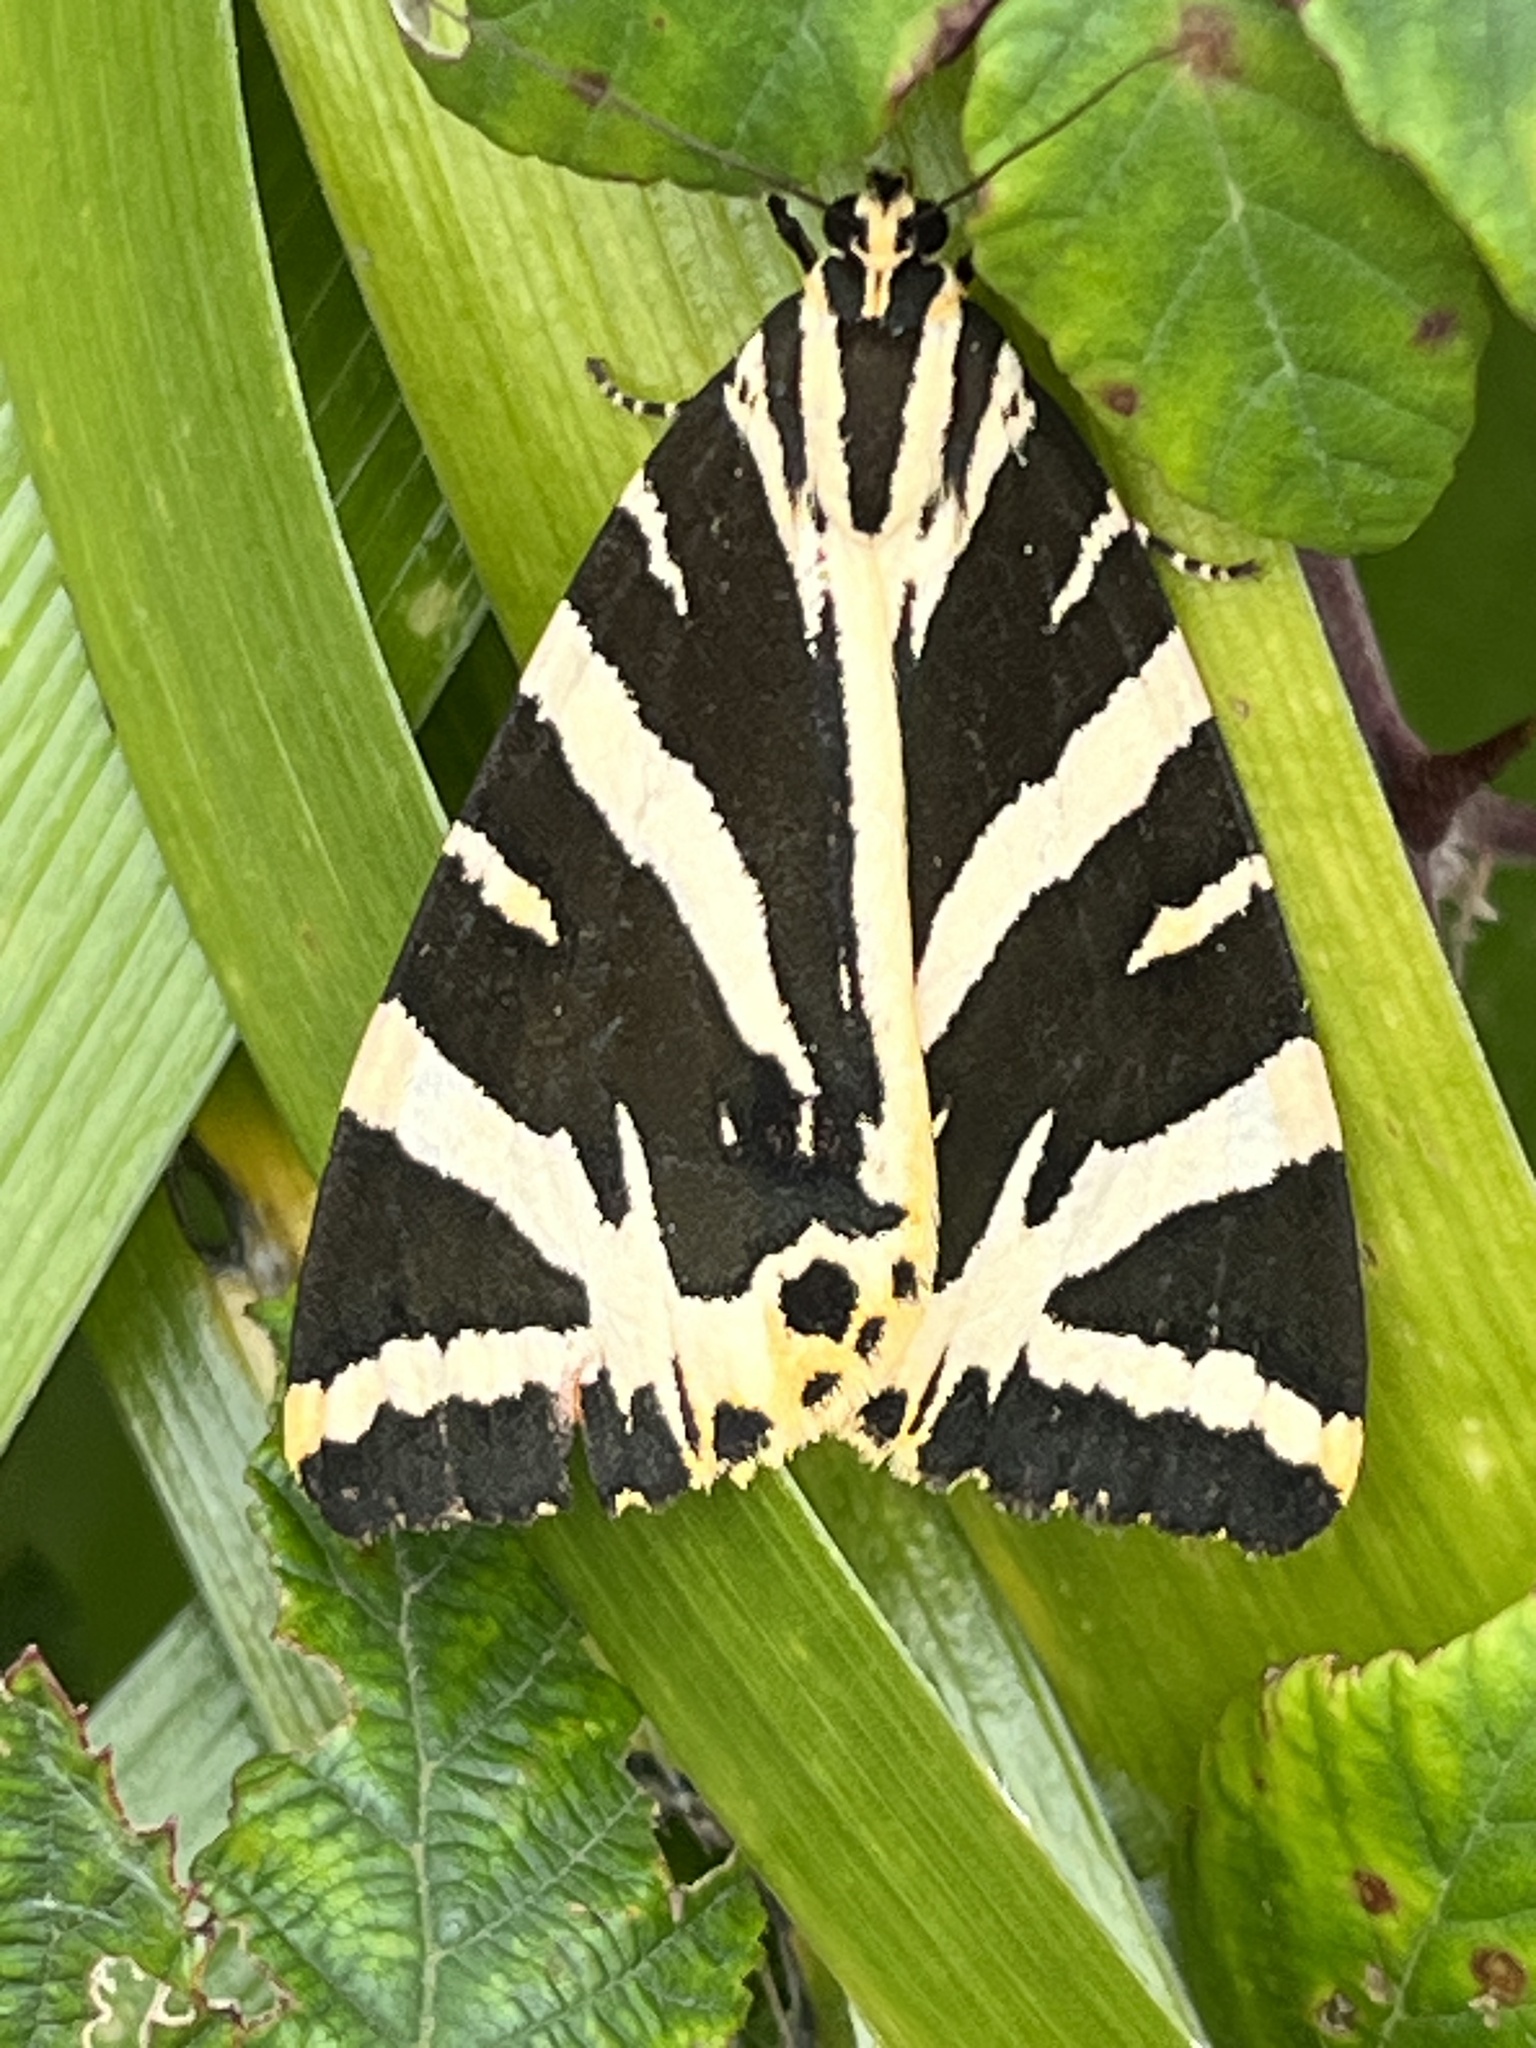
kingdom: Animalia
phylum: Arthropoda
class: Insecta
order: Lepidoptera
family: Erebidae
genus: Euplagia
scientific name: Euplagia quadripunctaria
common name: Jersey tiger
